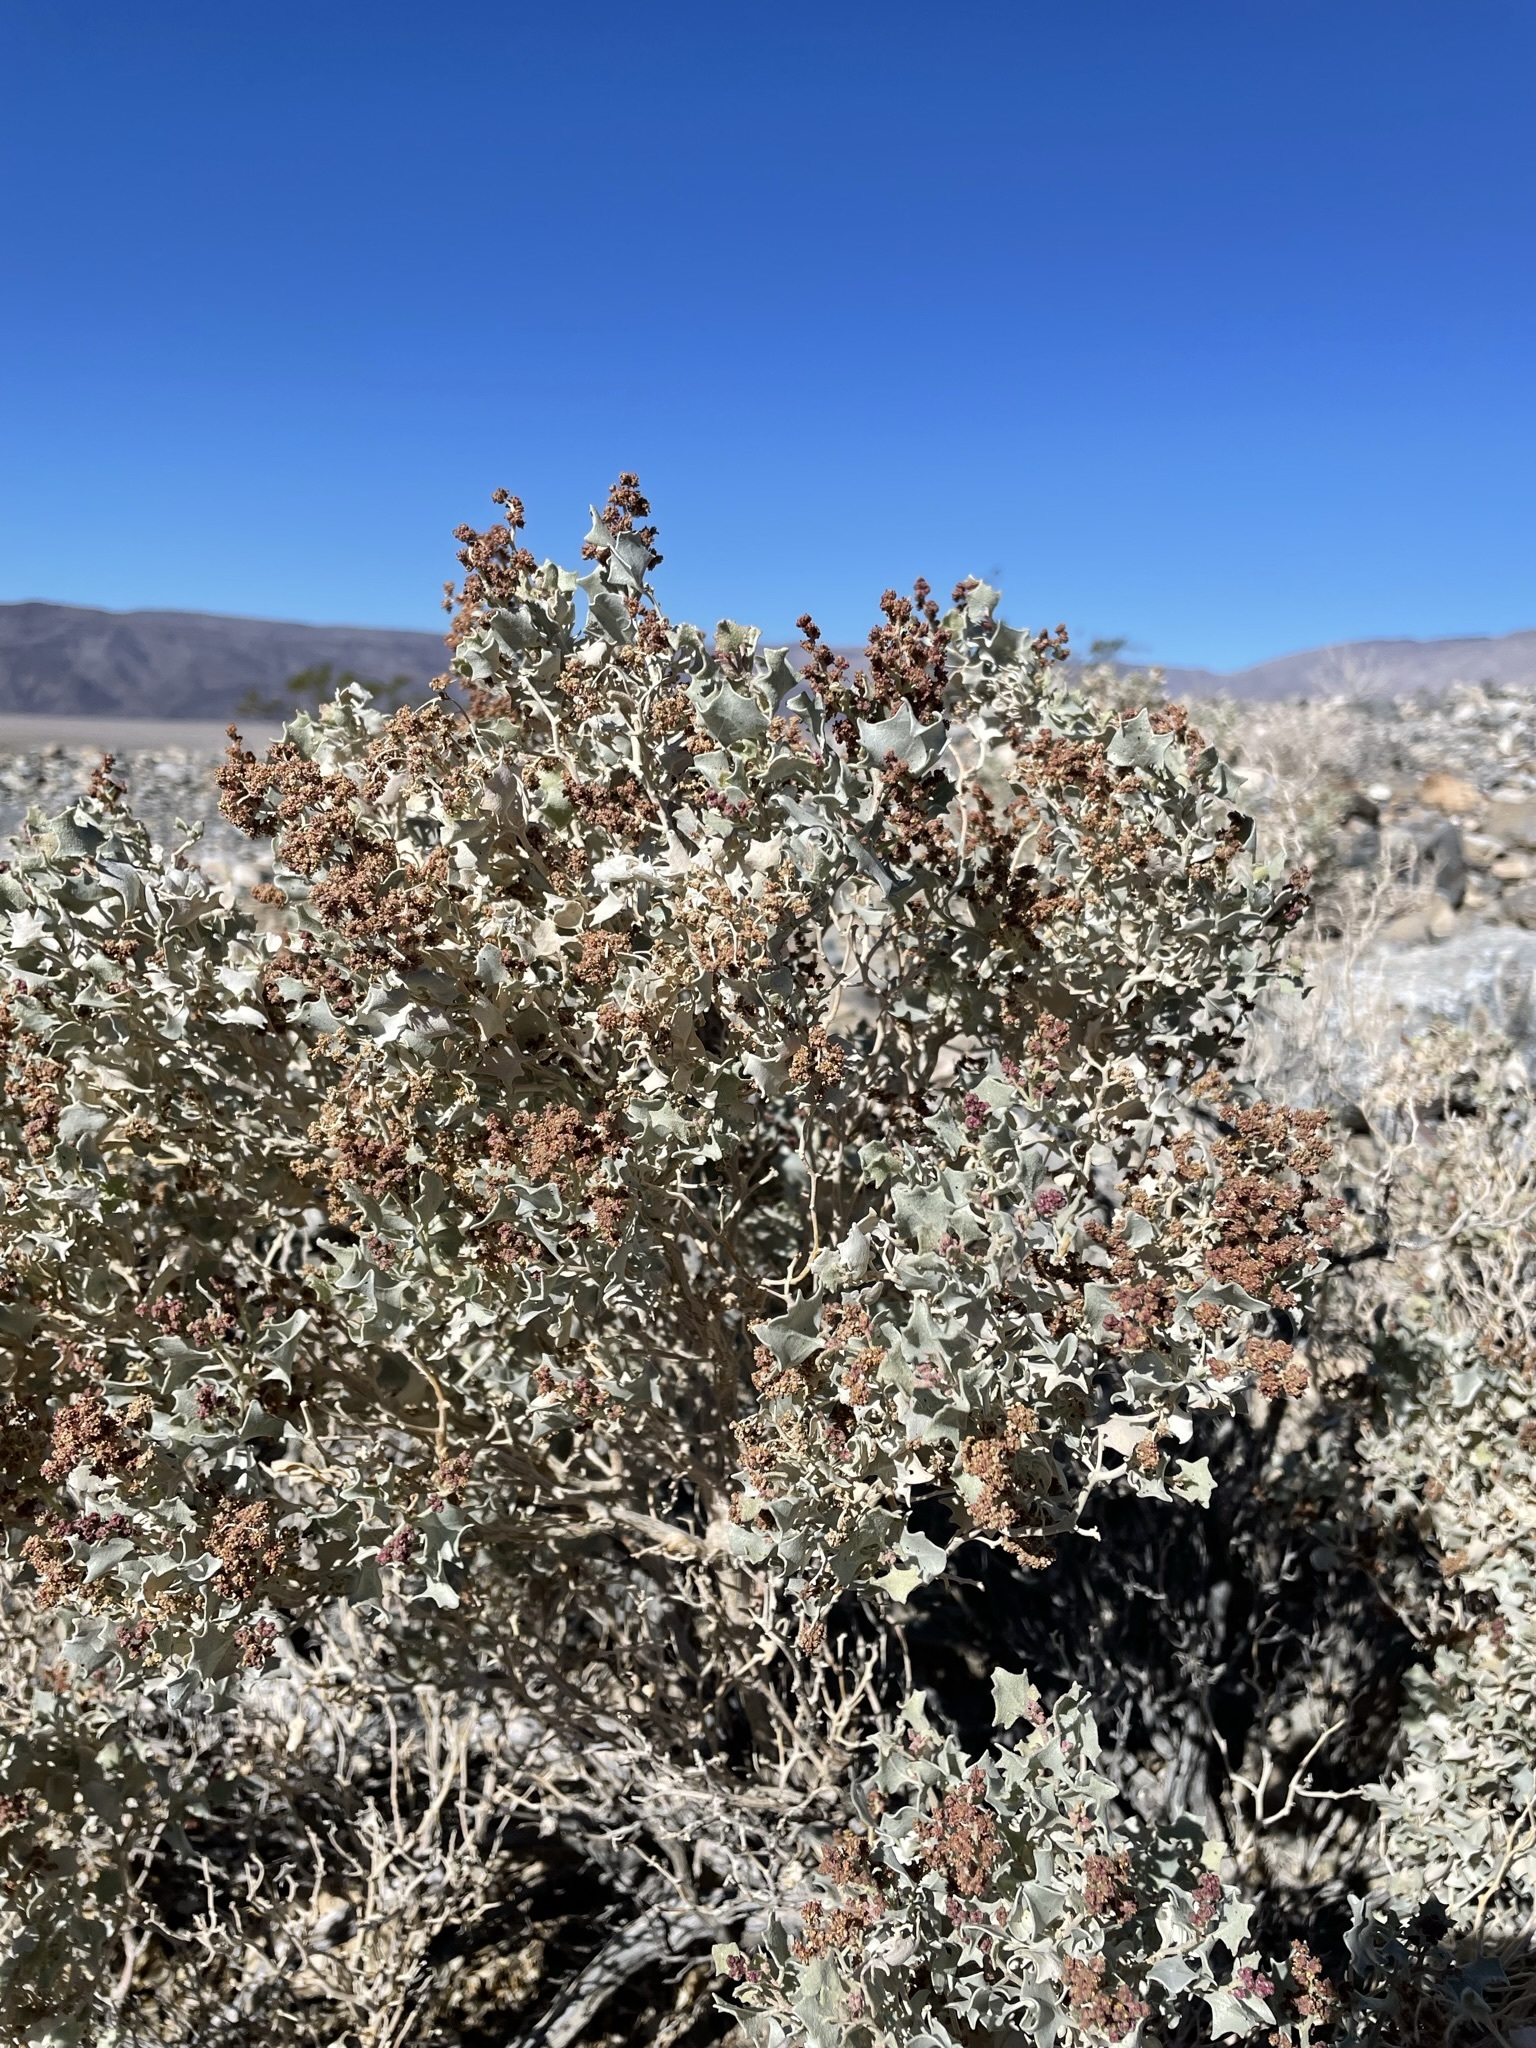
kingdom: Plantae
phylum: Tracheophyta
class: Magnoliopsida
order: Caryophyllales
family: Amaranthaceae
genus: Atriplex
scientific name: Atriplex hymenelytra
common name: Desert-holly
